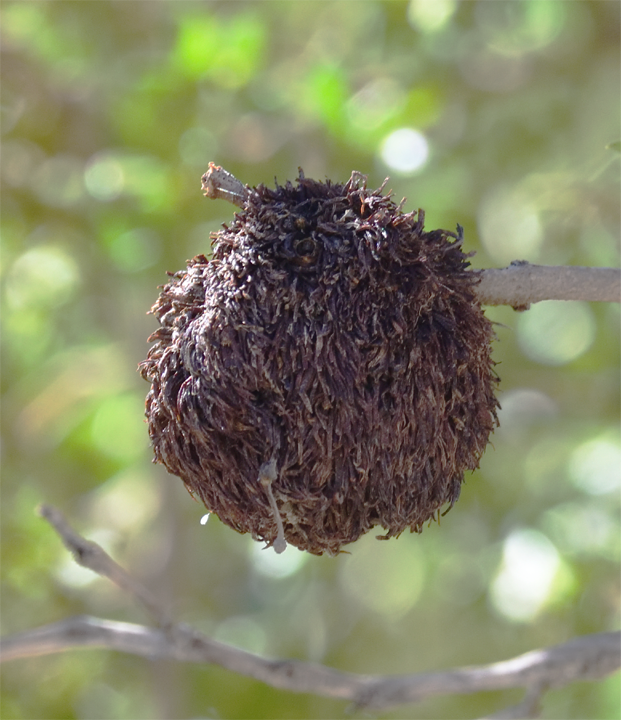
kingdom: Animalia
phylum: Arthropoda
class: Insecta
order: Diptera
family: Cecidomyiidae
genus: Asphondylia
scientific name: Asphondylia auripila
